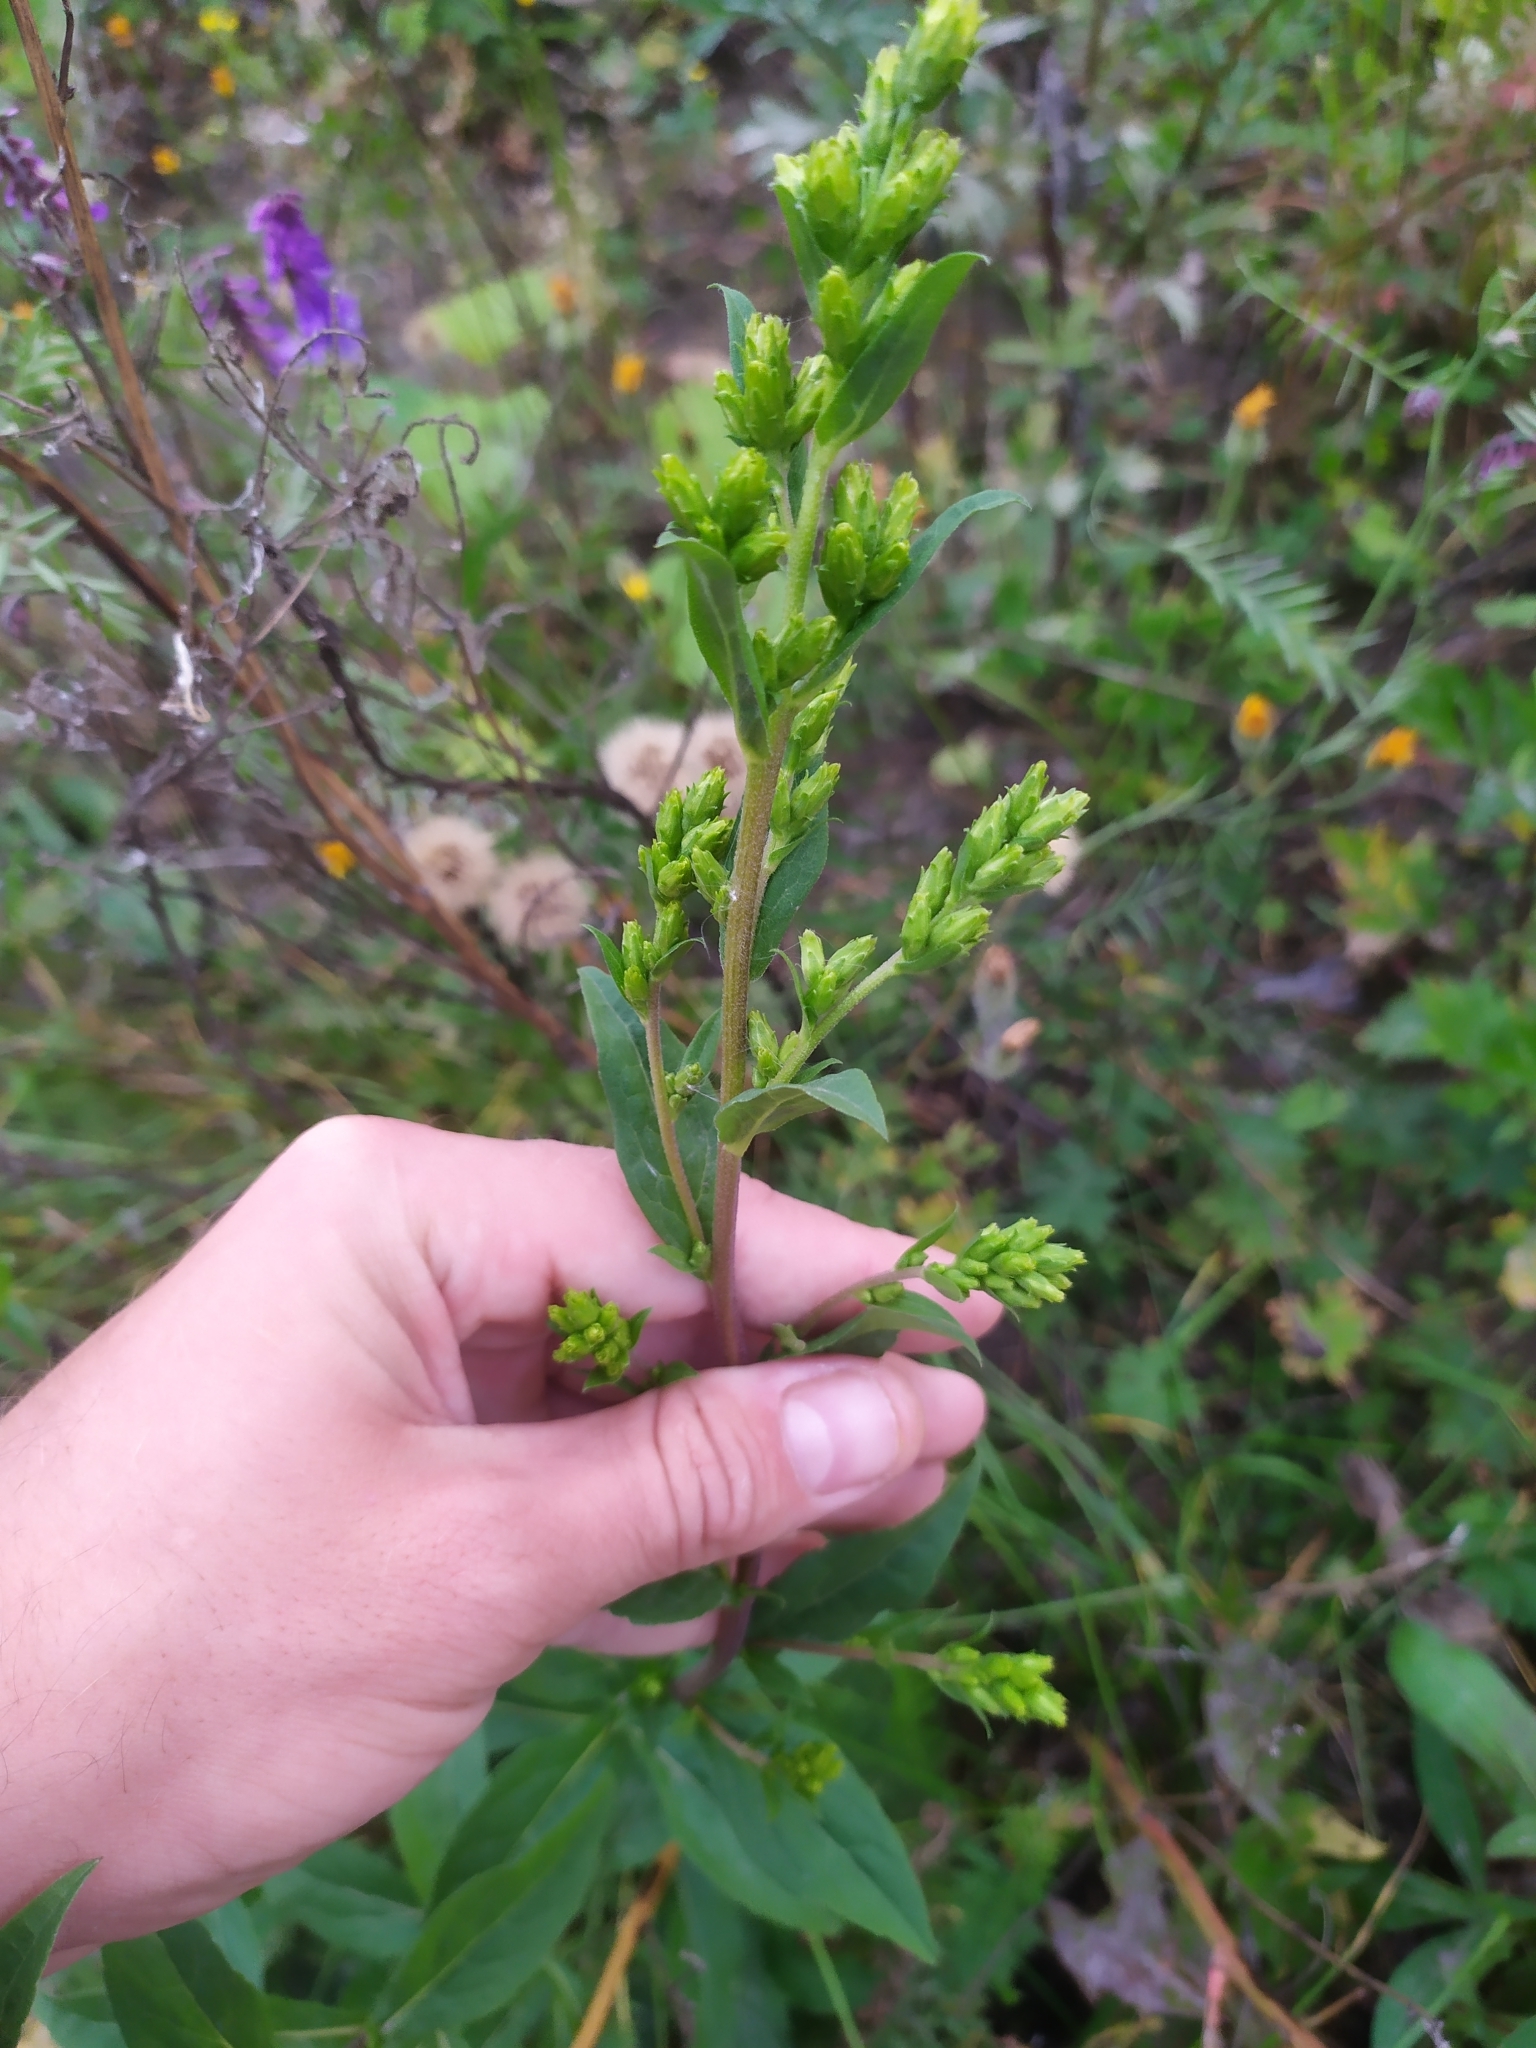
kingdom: Plantae
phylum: Tracheophyta
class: Magnoliopsida
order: Asterales
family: Asteraceae
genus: Solidago
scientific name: Solidago virgaurea
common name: Goldenrod
